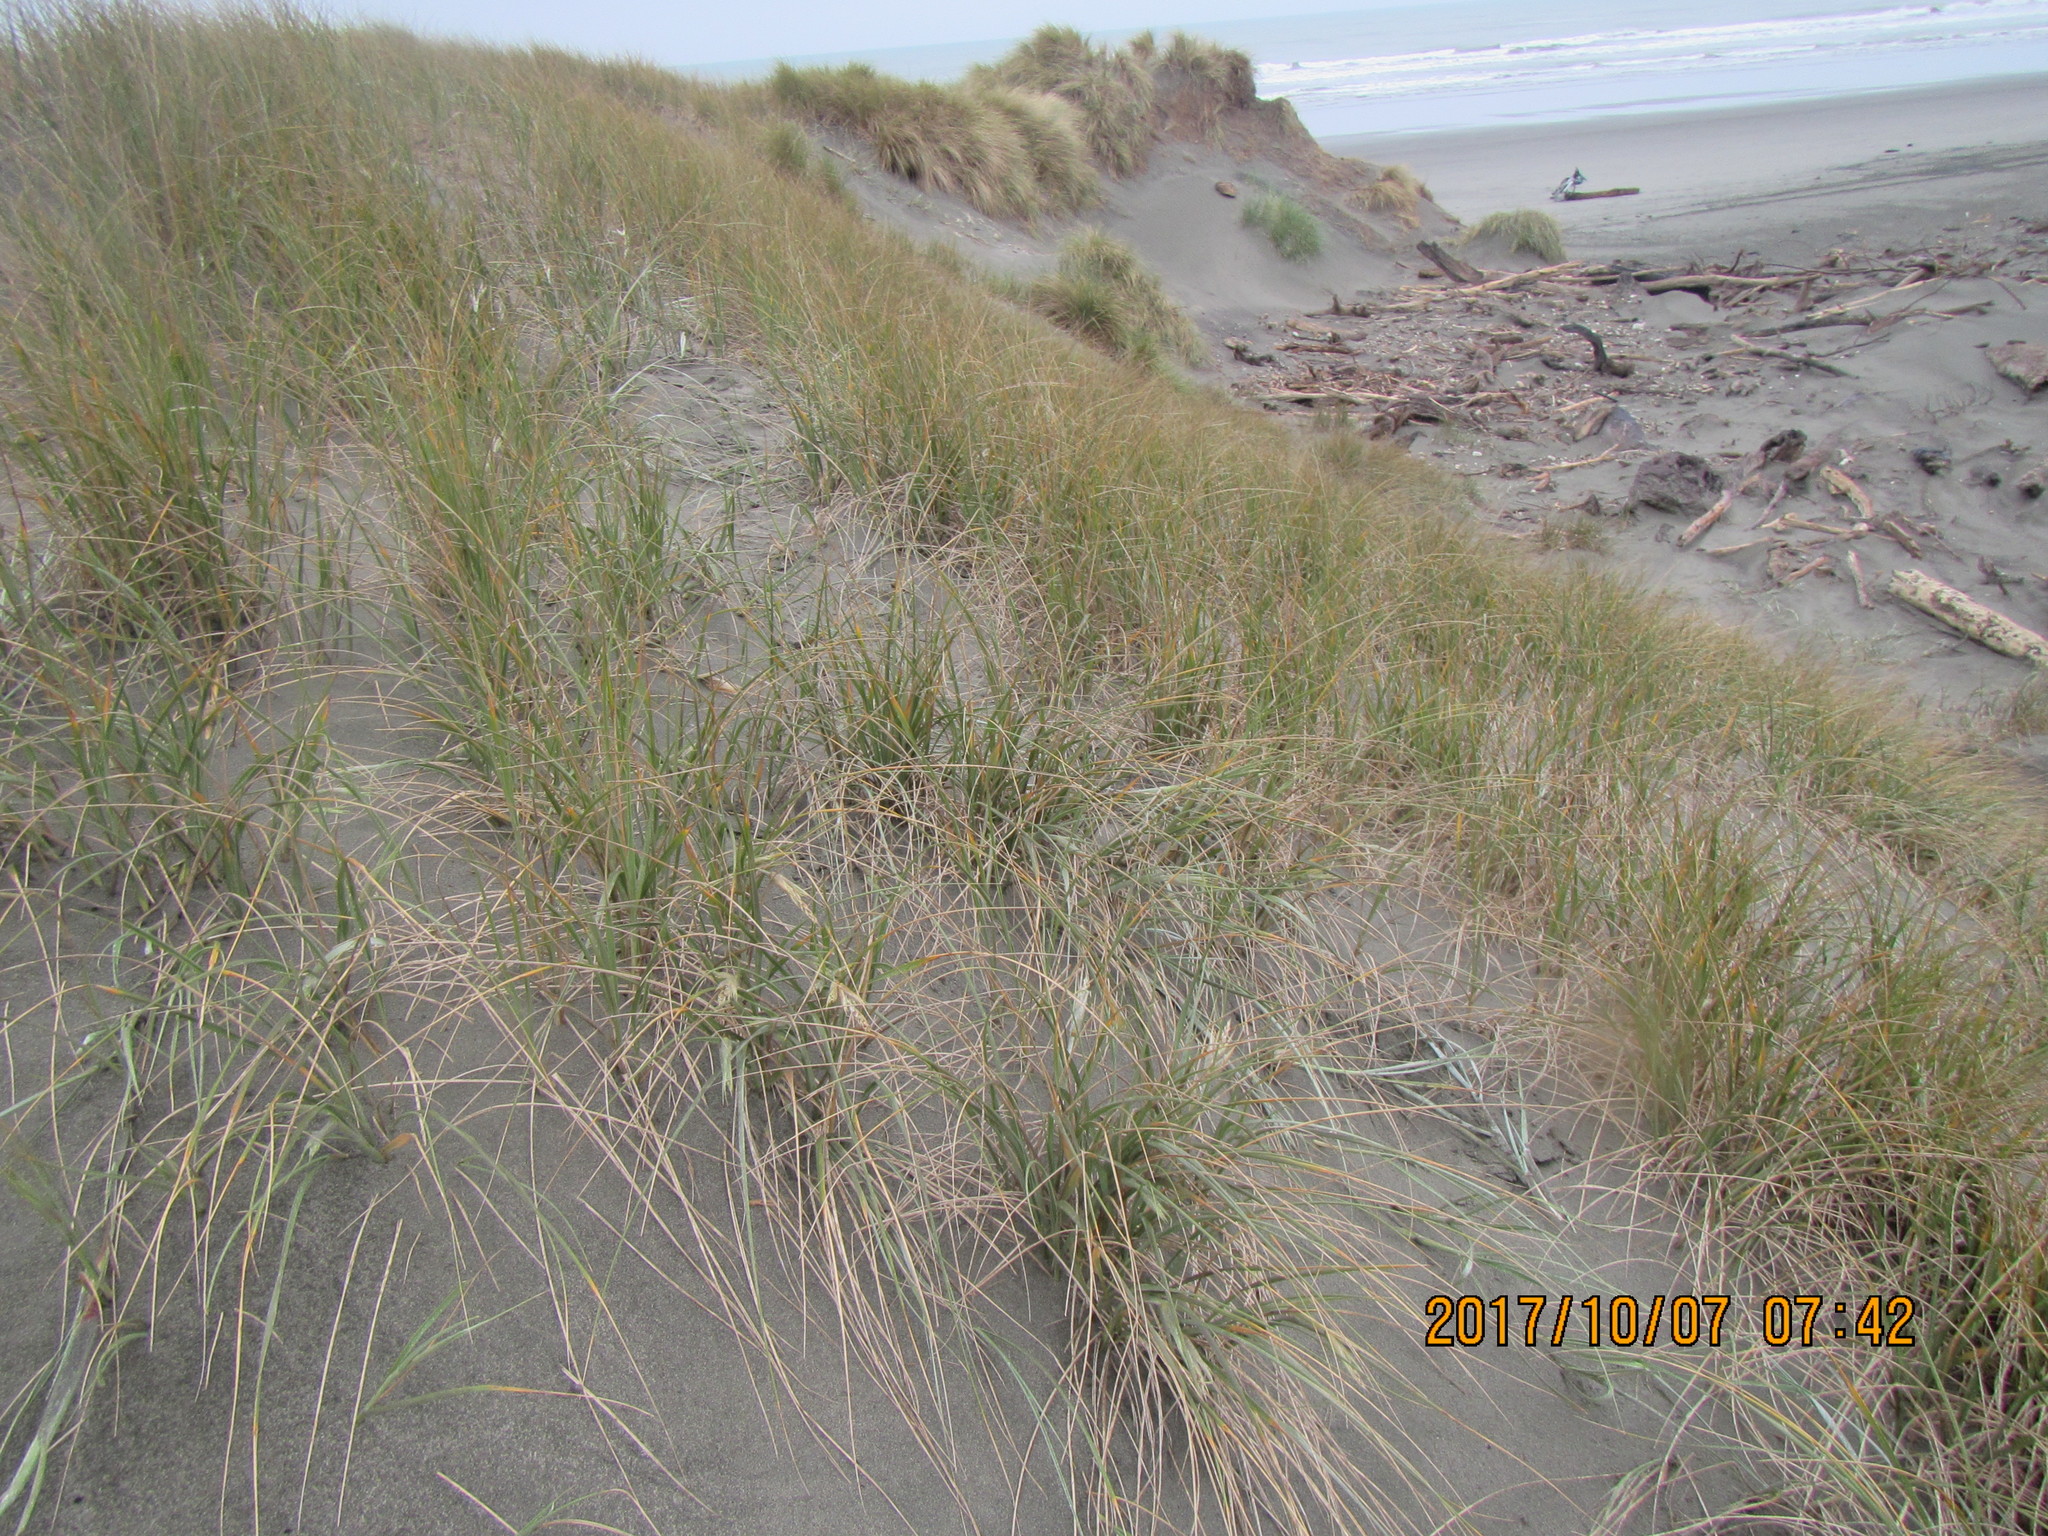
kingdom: Plantae
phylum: Tracheophyta
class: Liliopsida
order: Poales
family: Poaceae
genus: Spinifex
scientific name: Spinifex sericeus
